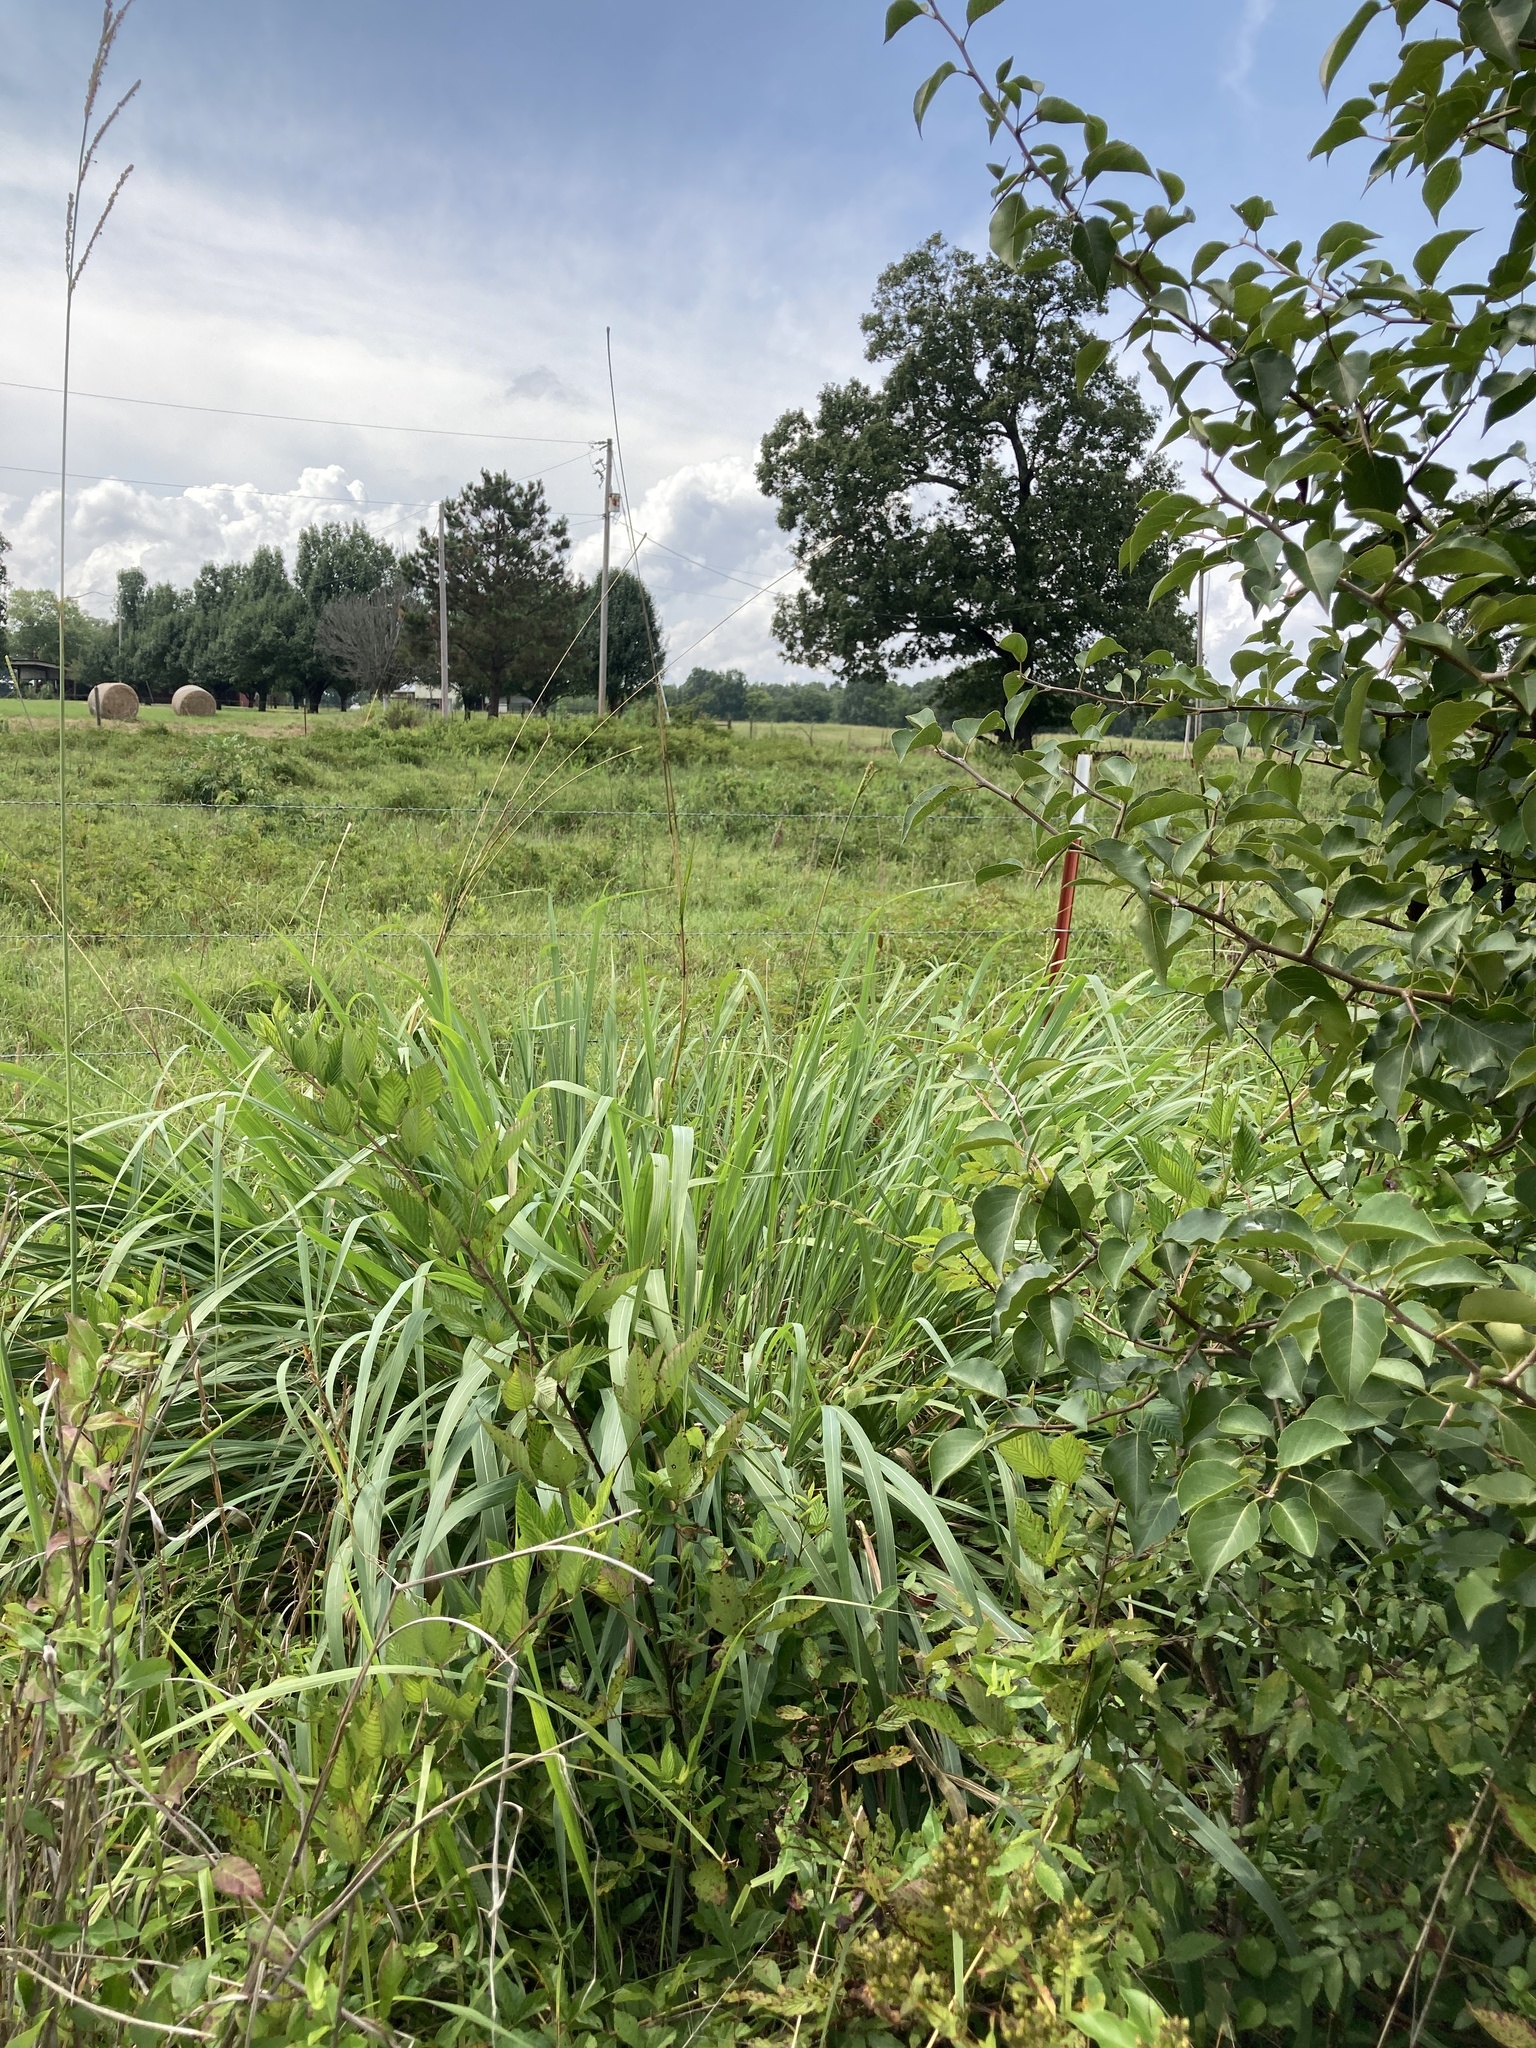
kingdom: Plantae
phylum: Tracheophyta
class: Liliopsida
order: Poales
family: Poaceae
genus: Tripsacum
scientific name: Tripsacum dactyloides
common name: Buffalo-grass
